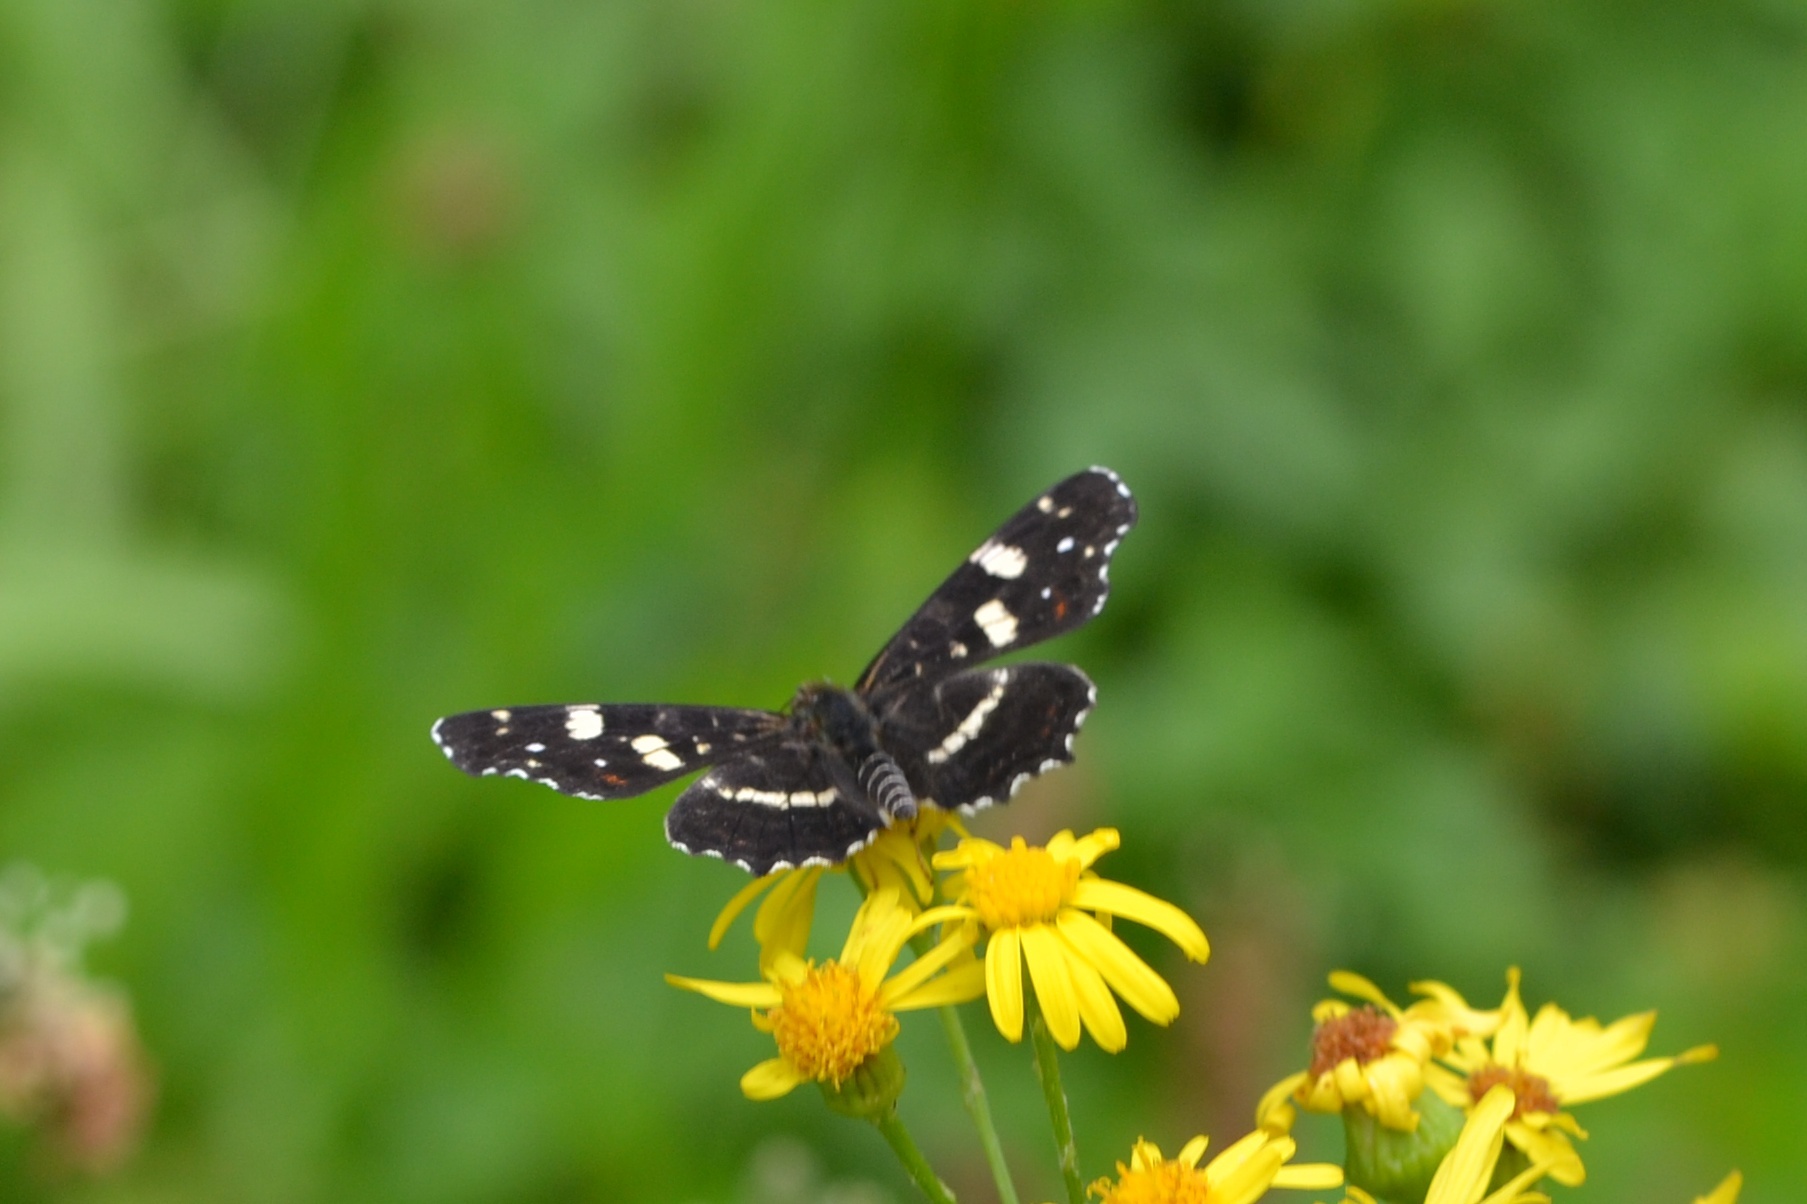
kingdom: Animalia
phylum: Arthropoda
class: Insecta
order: Lepidoptera
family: Nymphalidae
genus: Araschnia
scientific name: Araschnia levana
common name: Map butterfly
